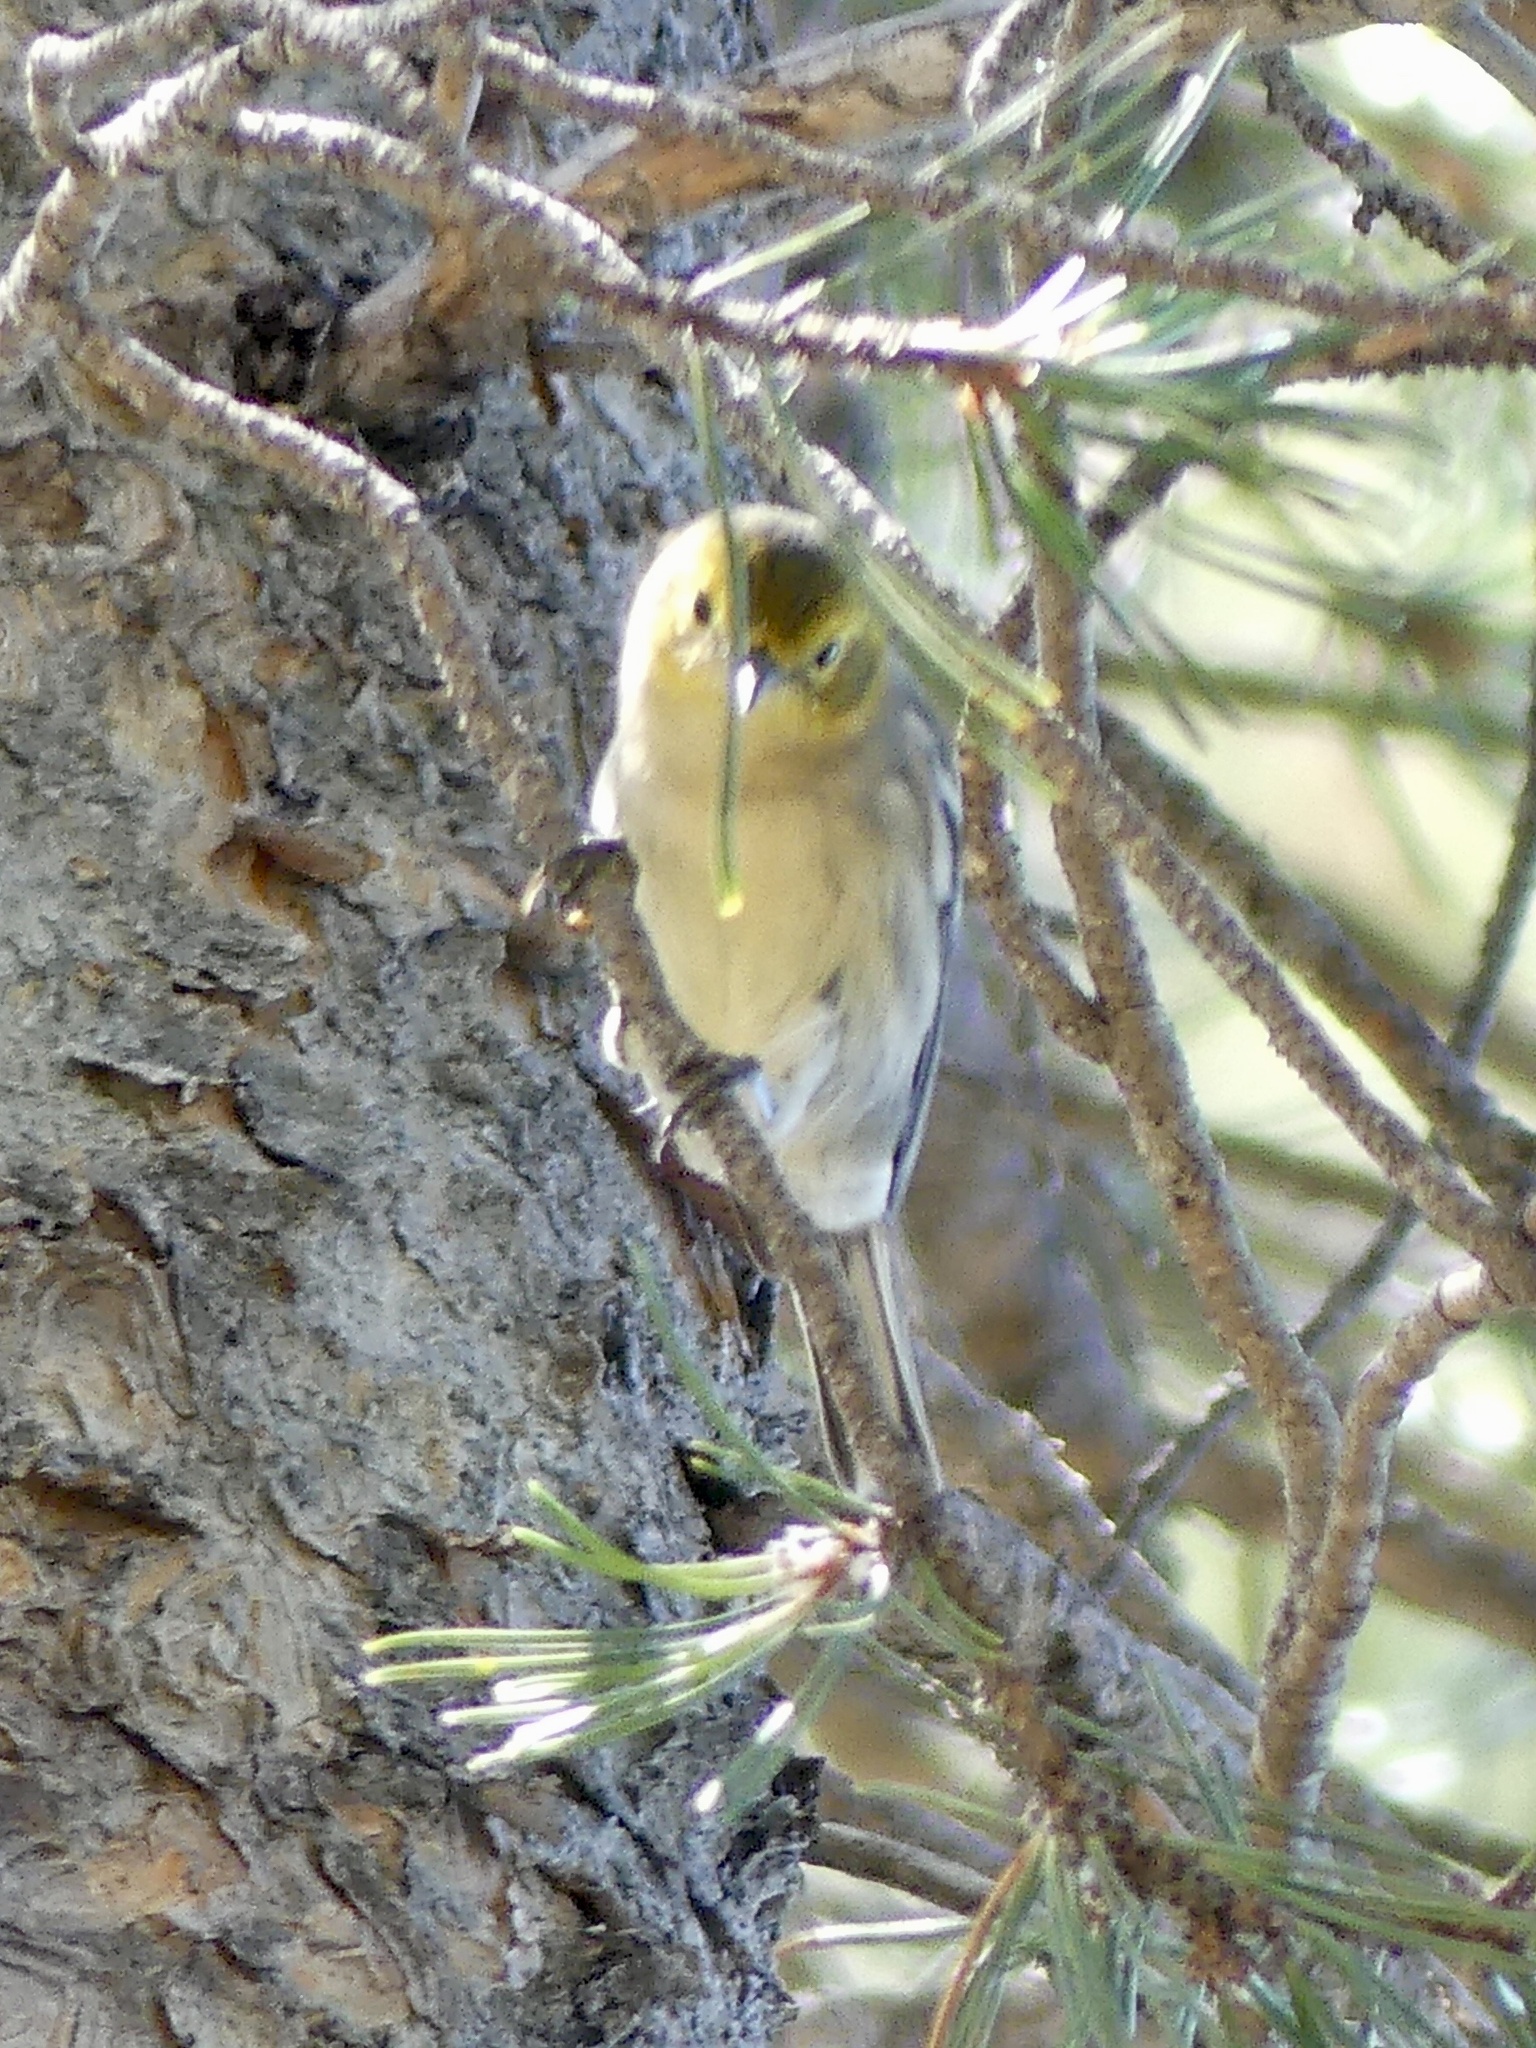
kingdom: Animalia
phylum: Chordata
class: Aves
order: Passeriformes
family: Parulidae
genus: Setophaga
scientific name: Setophaga occidentalis
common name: Hermit warbler
